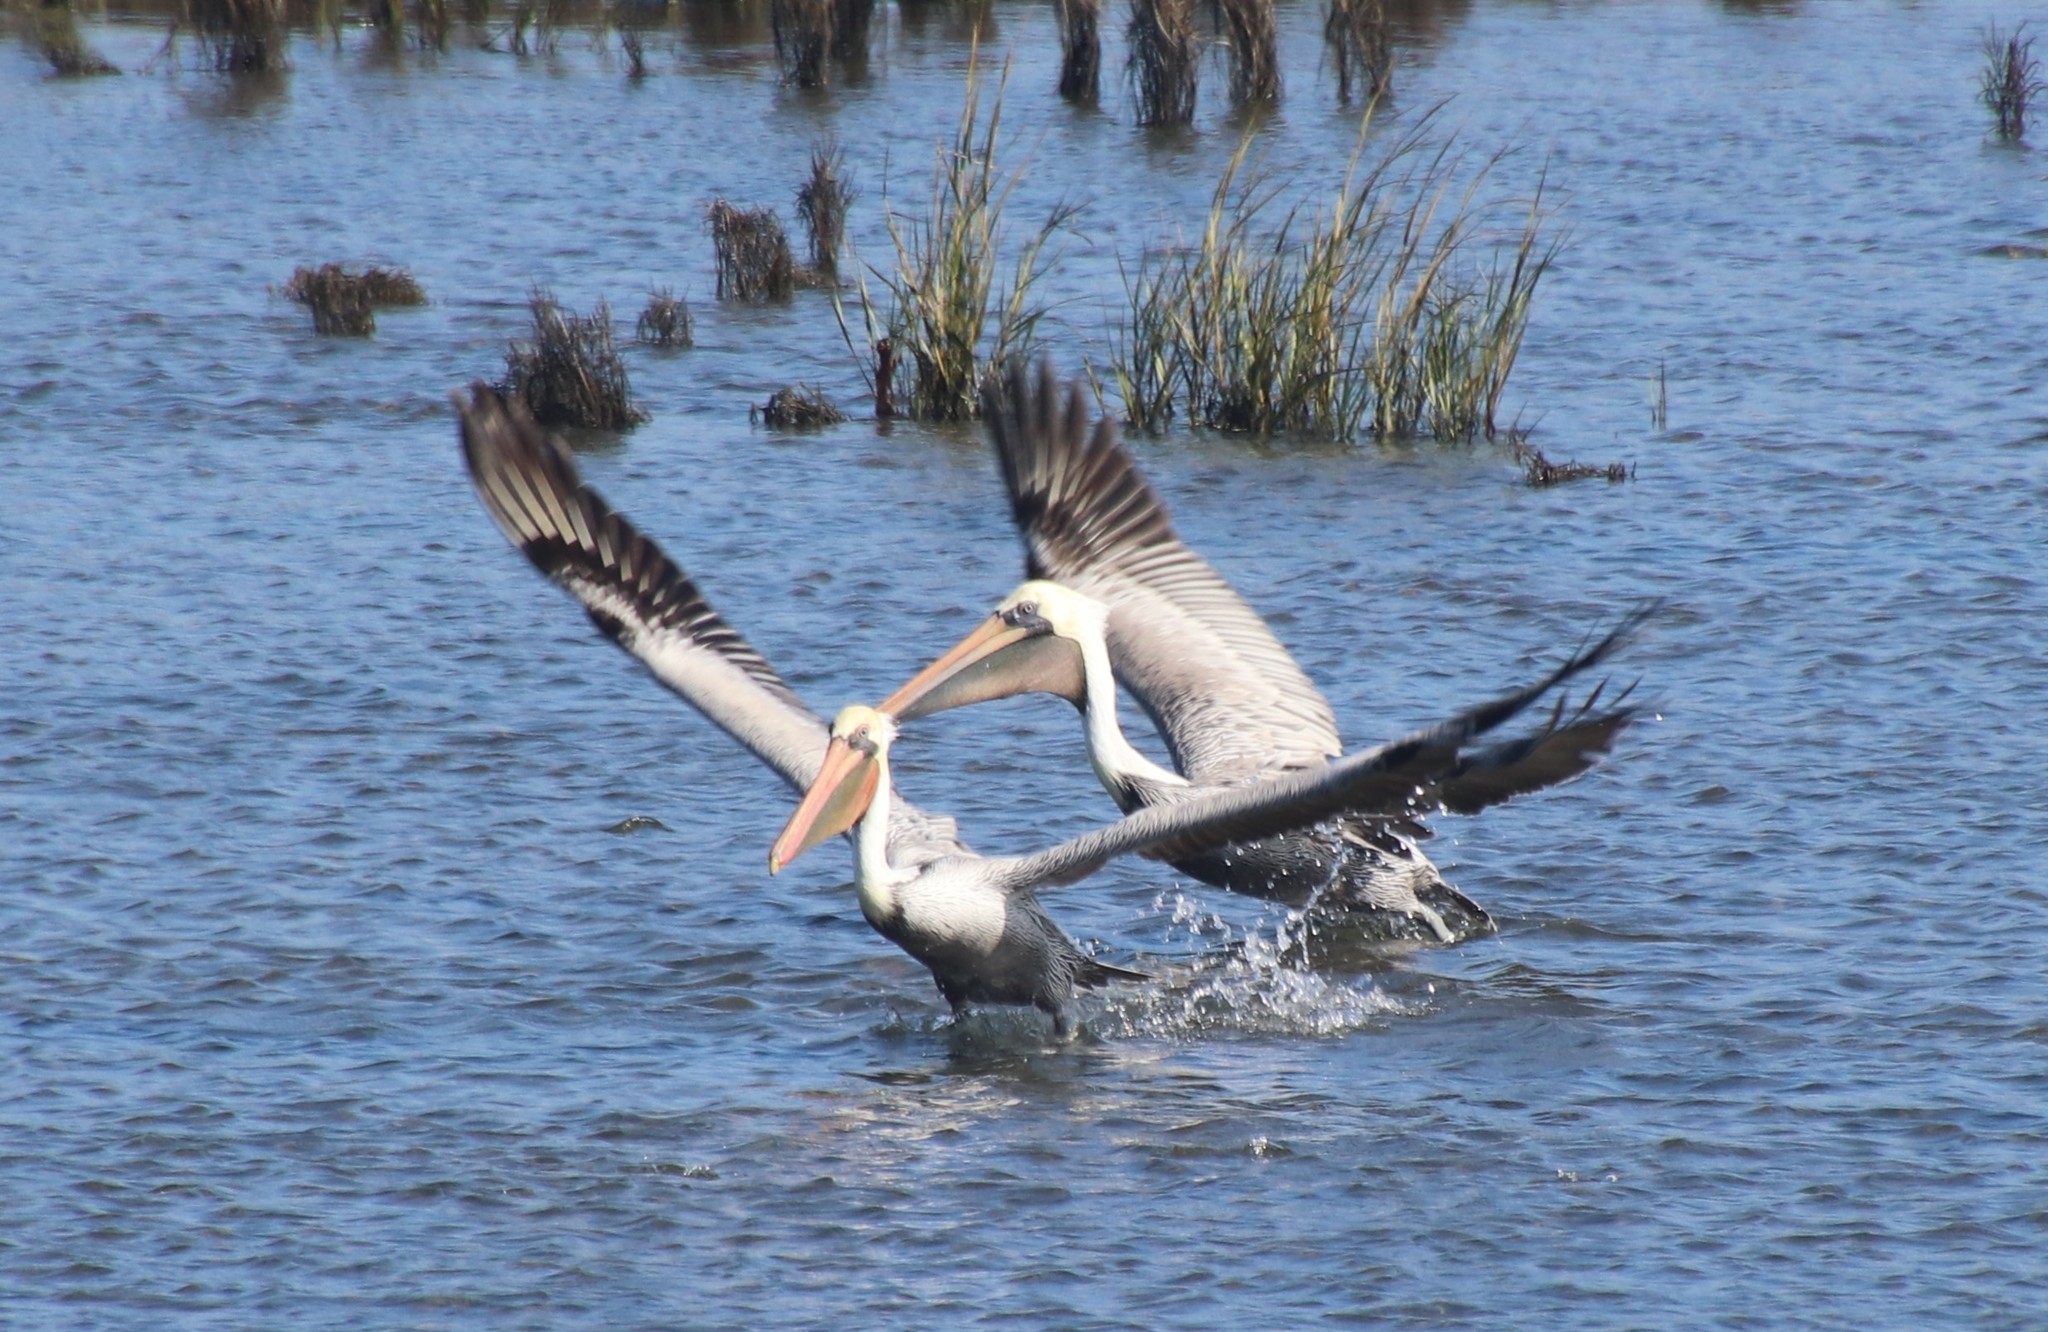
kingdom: Animalia
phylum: Chordata
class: Aves
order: Pelecaniformes
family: Pelecanidae
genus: Pelecanus
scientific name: Pelecanus occidentalis
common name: Brown pelican
